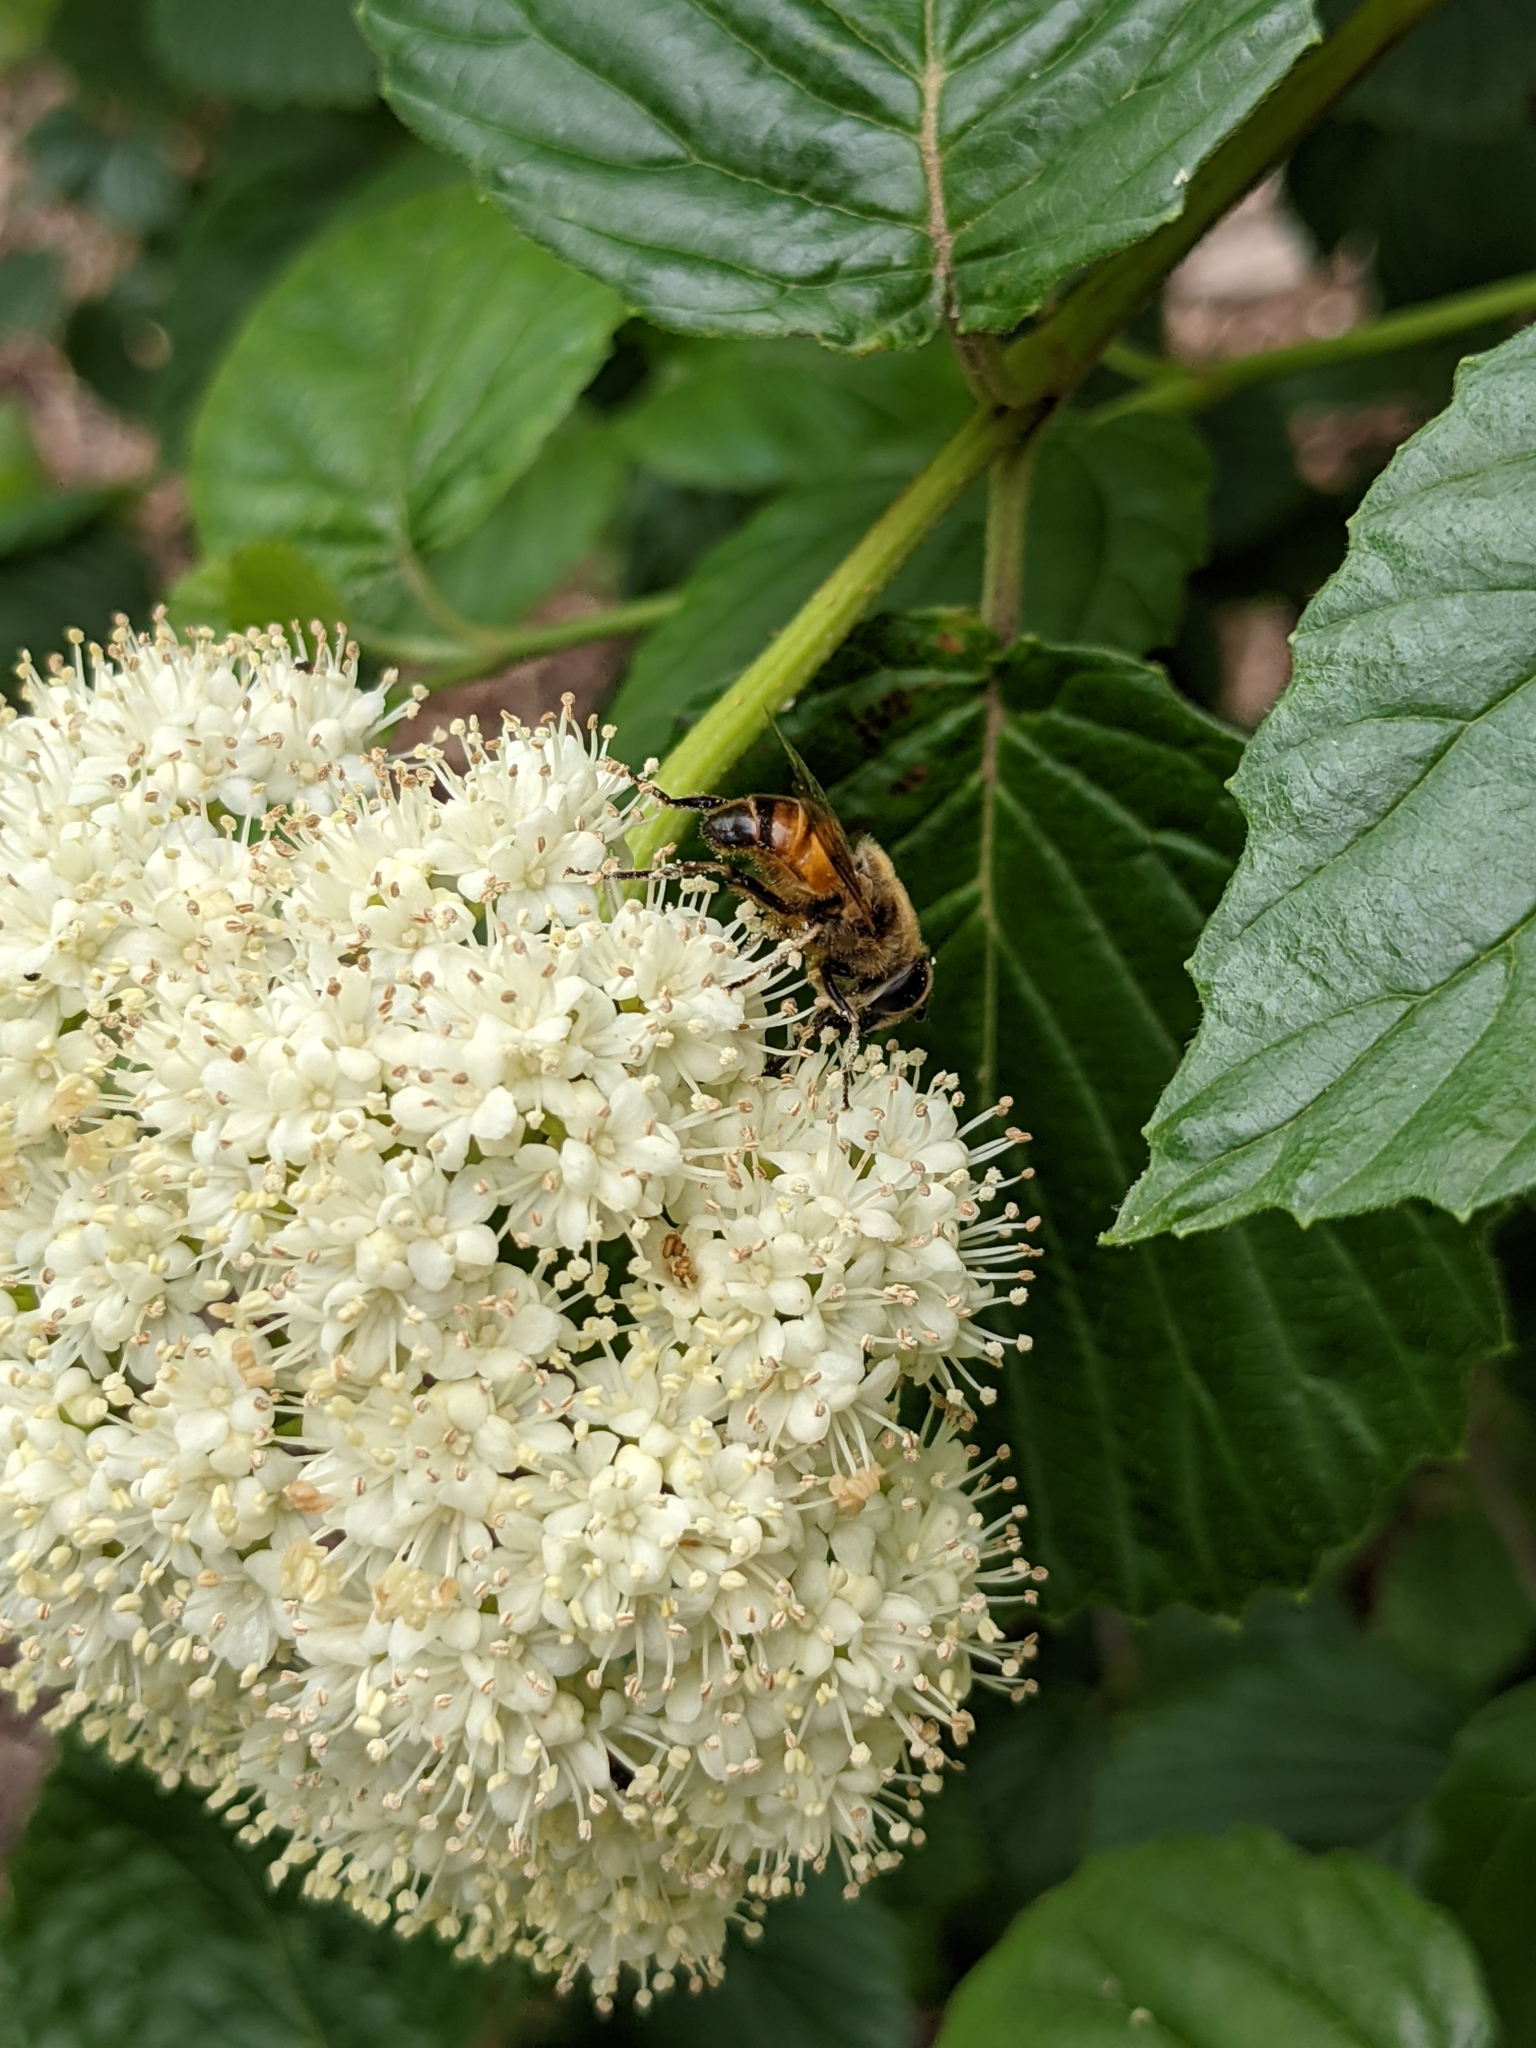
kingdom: Animalia
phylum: Arthropoda
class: Insecta
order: Diptera
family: Syrphidae
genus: Eristalis
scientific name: Eristalis tenax
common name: Drone fly
